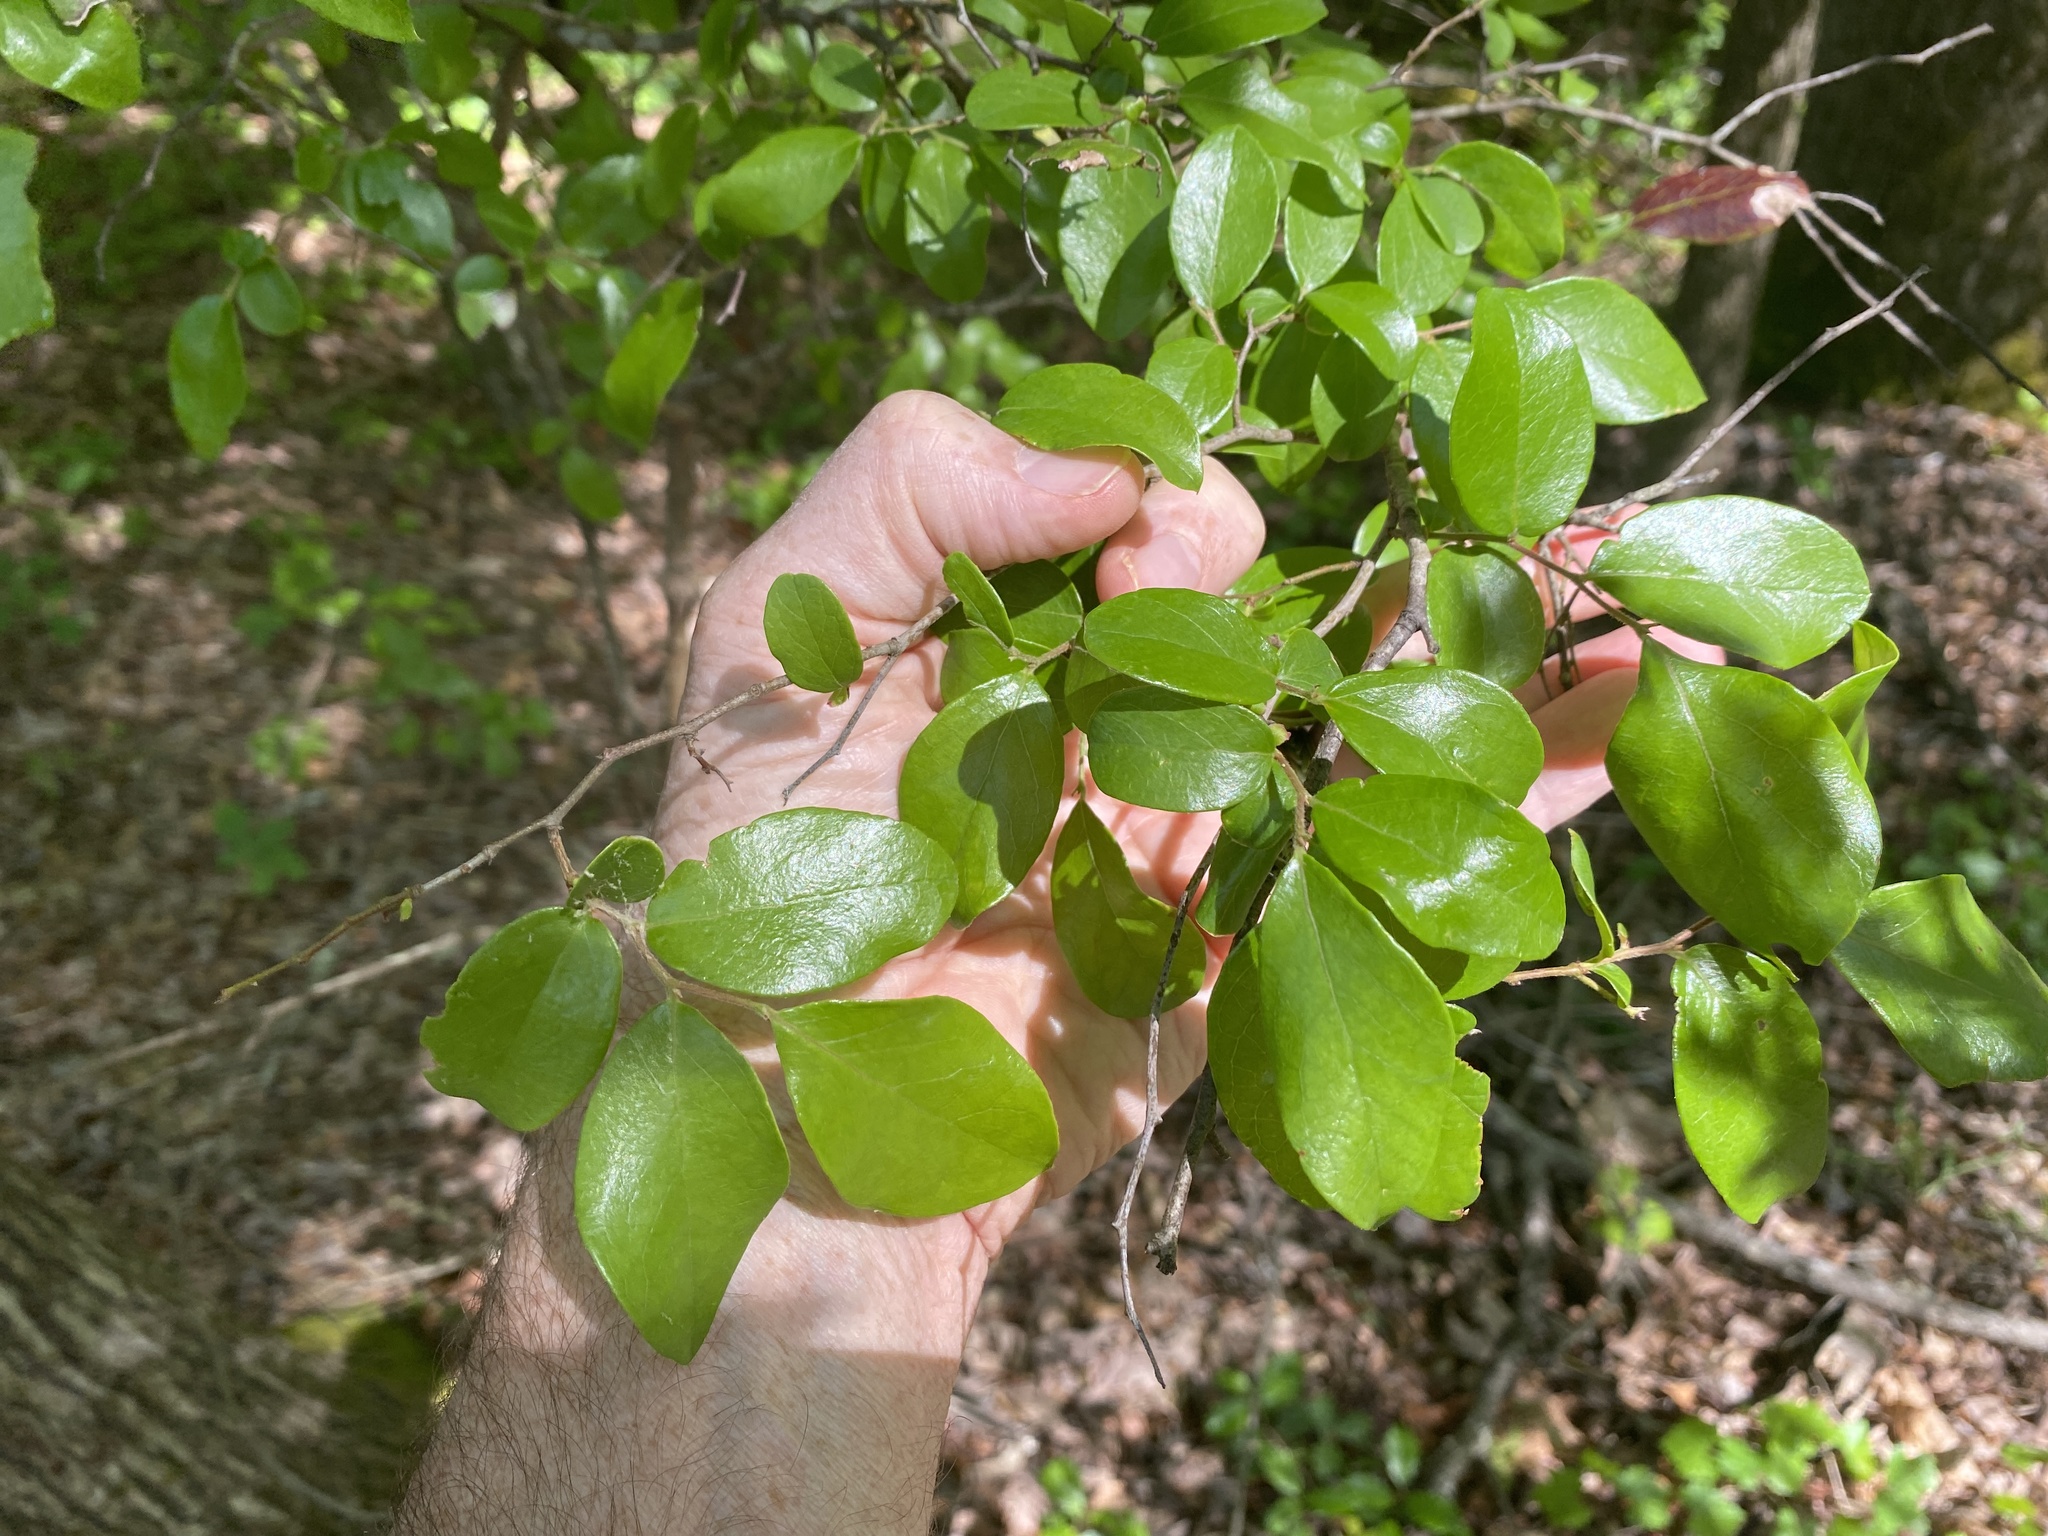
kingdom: Plantae
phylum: Tracheophyta
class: Magnoliopsida
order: Ericales
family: Ericaceae
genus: Vaccinium
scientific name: Vaccinium arboreum
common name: Farkleberry
